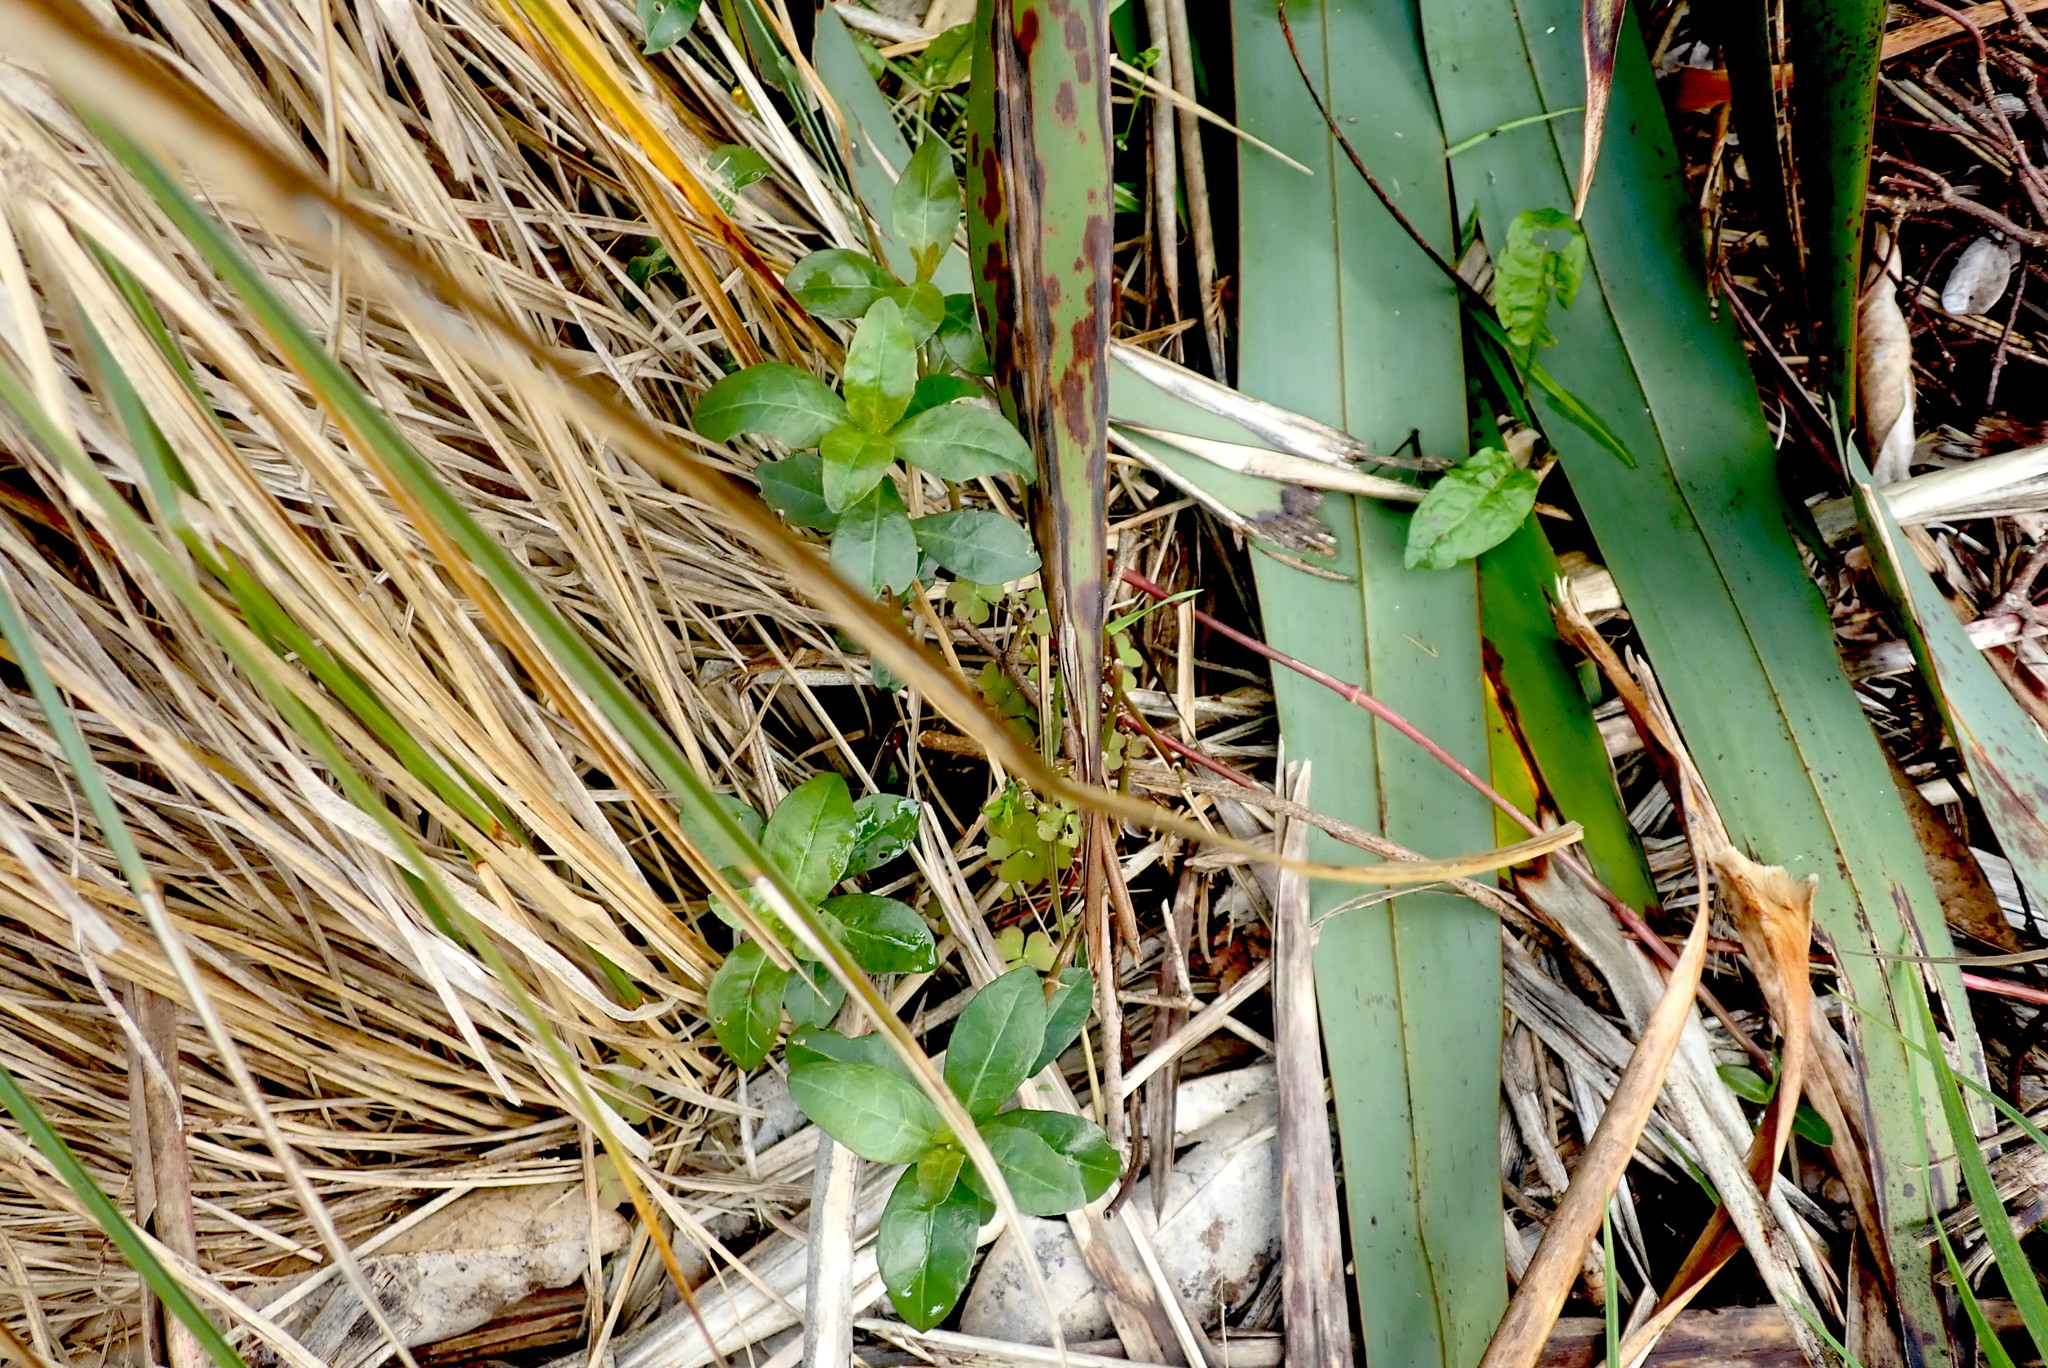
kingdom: Plantae
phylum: Tracheophyta
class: Magnoliopsida
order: Caryophyllales
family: Amaranthaceae
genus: Alternanthera
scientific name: Alternanthera philoxeroides
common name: Alligatorweed
